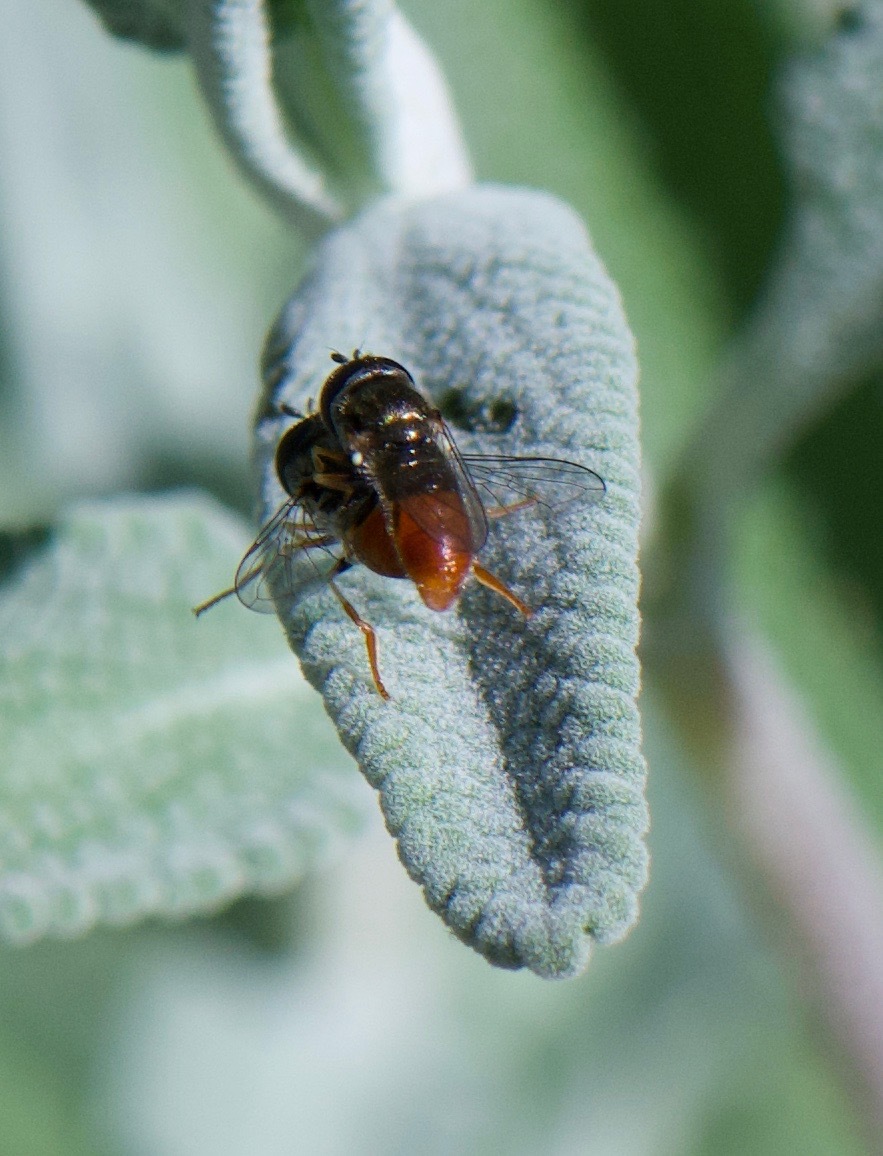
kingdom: Animalia
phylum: Arthropoda
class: Insecta
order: Diptera
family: Syrphidae
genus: Paragus
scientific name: Paragus haemorrhous
